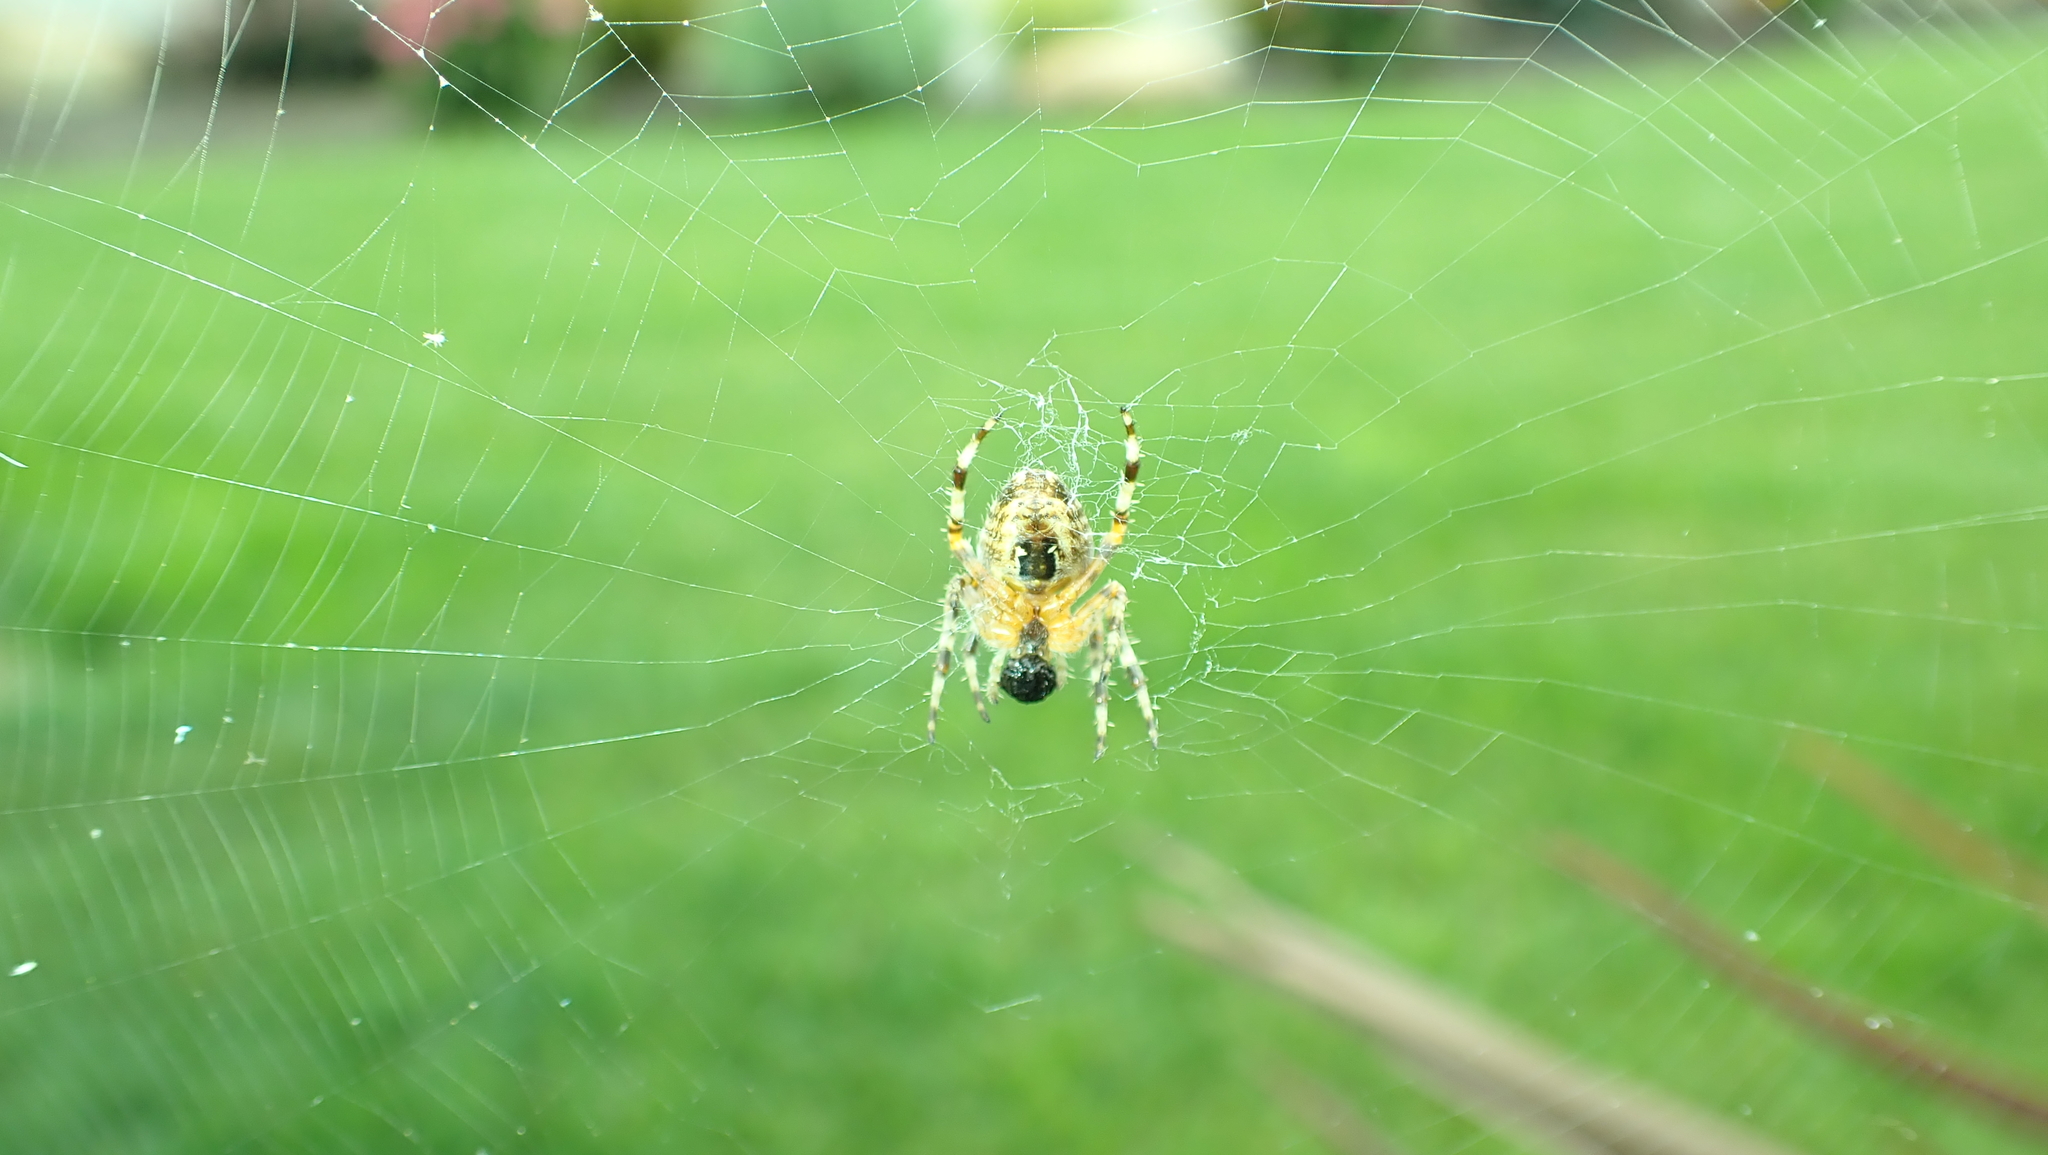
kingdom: Animalia
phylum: Arthropoda
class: Arachnida
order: Araneae
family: Araneidae
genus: Araneus
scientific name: Araneus diadematus
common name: Cross orbweaver
